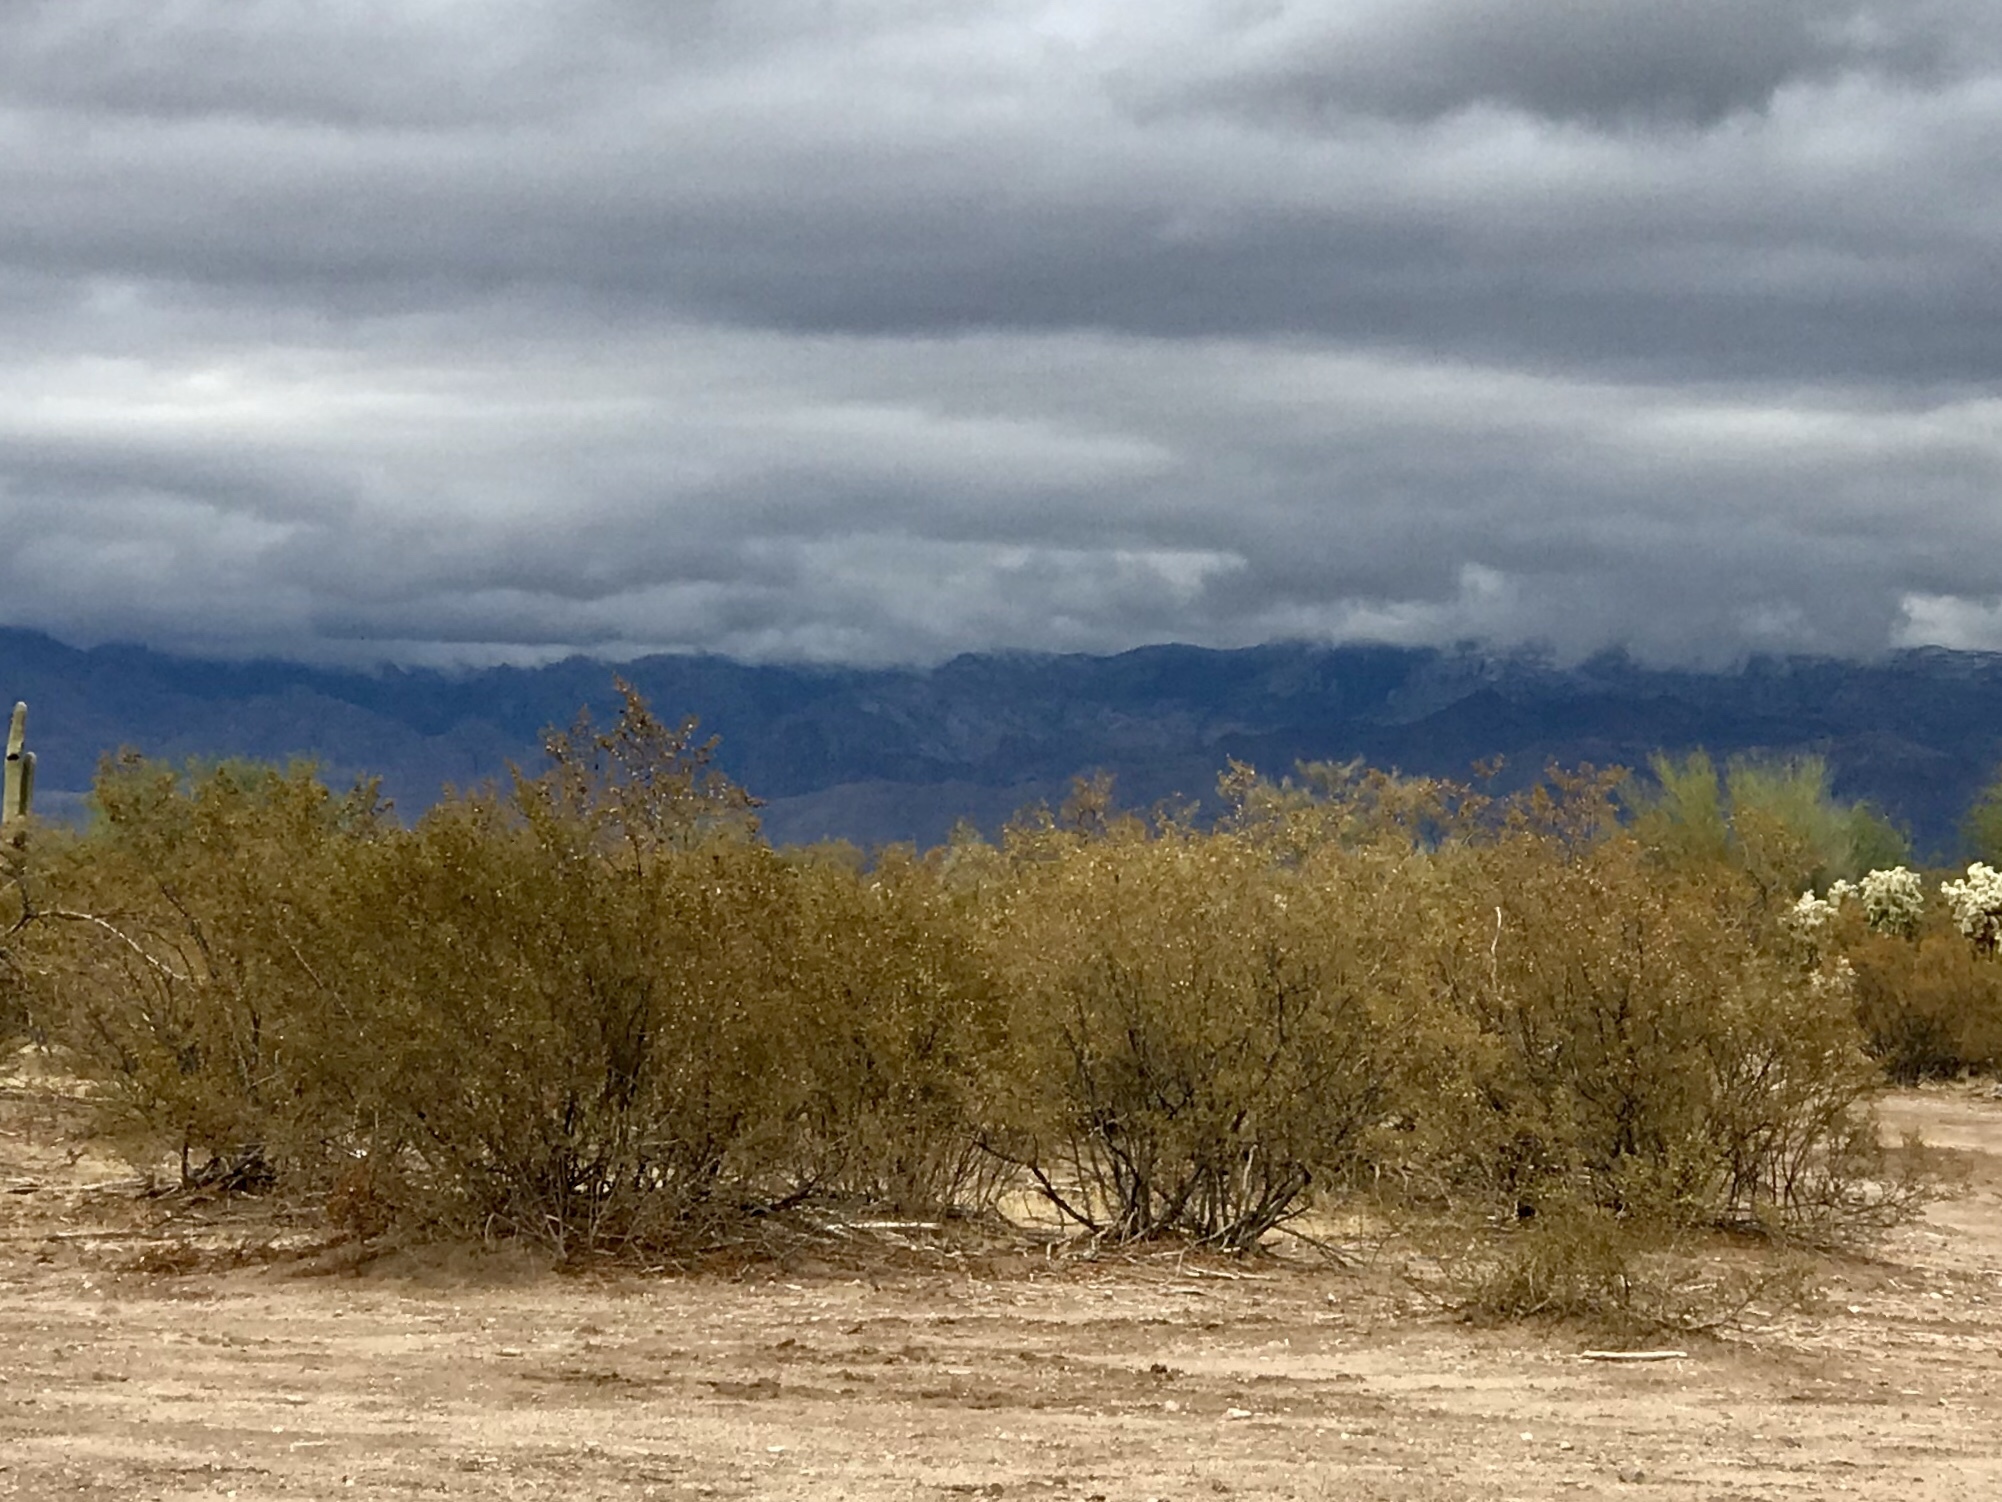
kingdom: Plantae
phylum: Tracheophyta
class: Magnoliopsida
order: Zygophyllales
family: Zygophyllaceae
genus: Larrea
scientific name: Larrea tridentata
